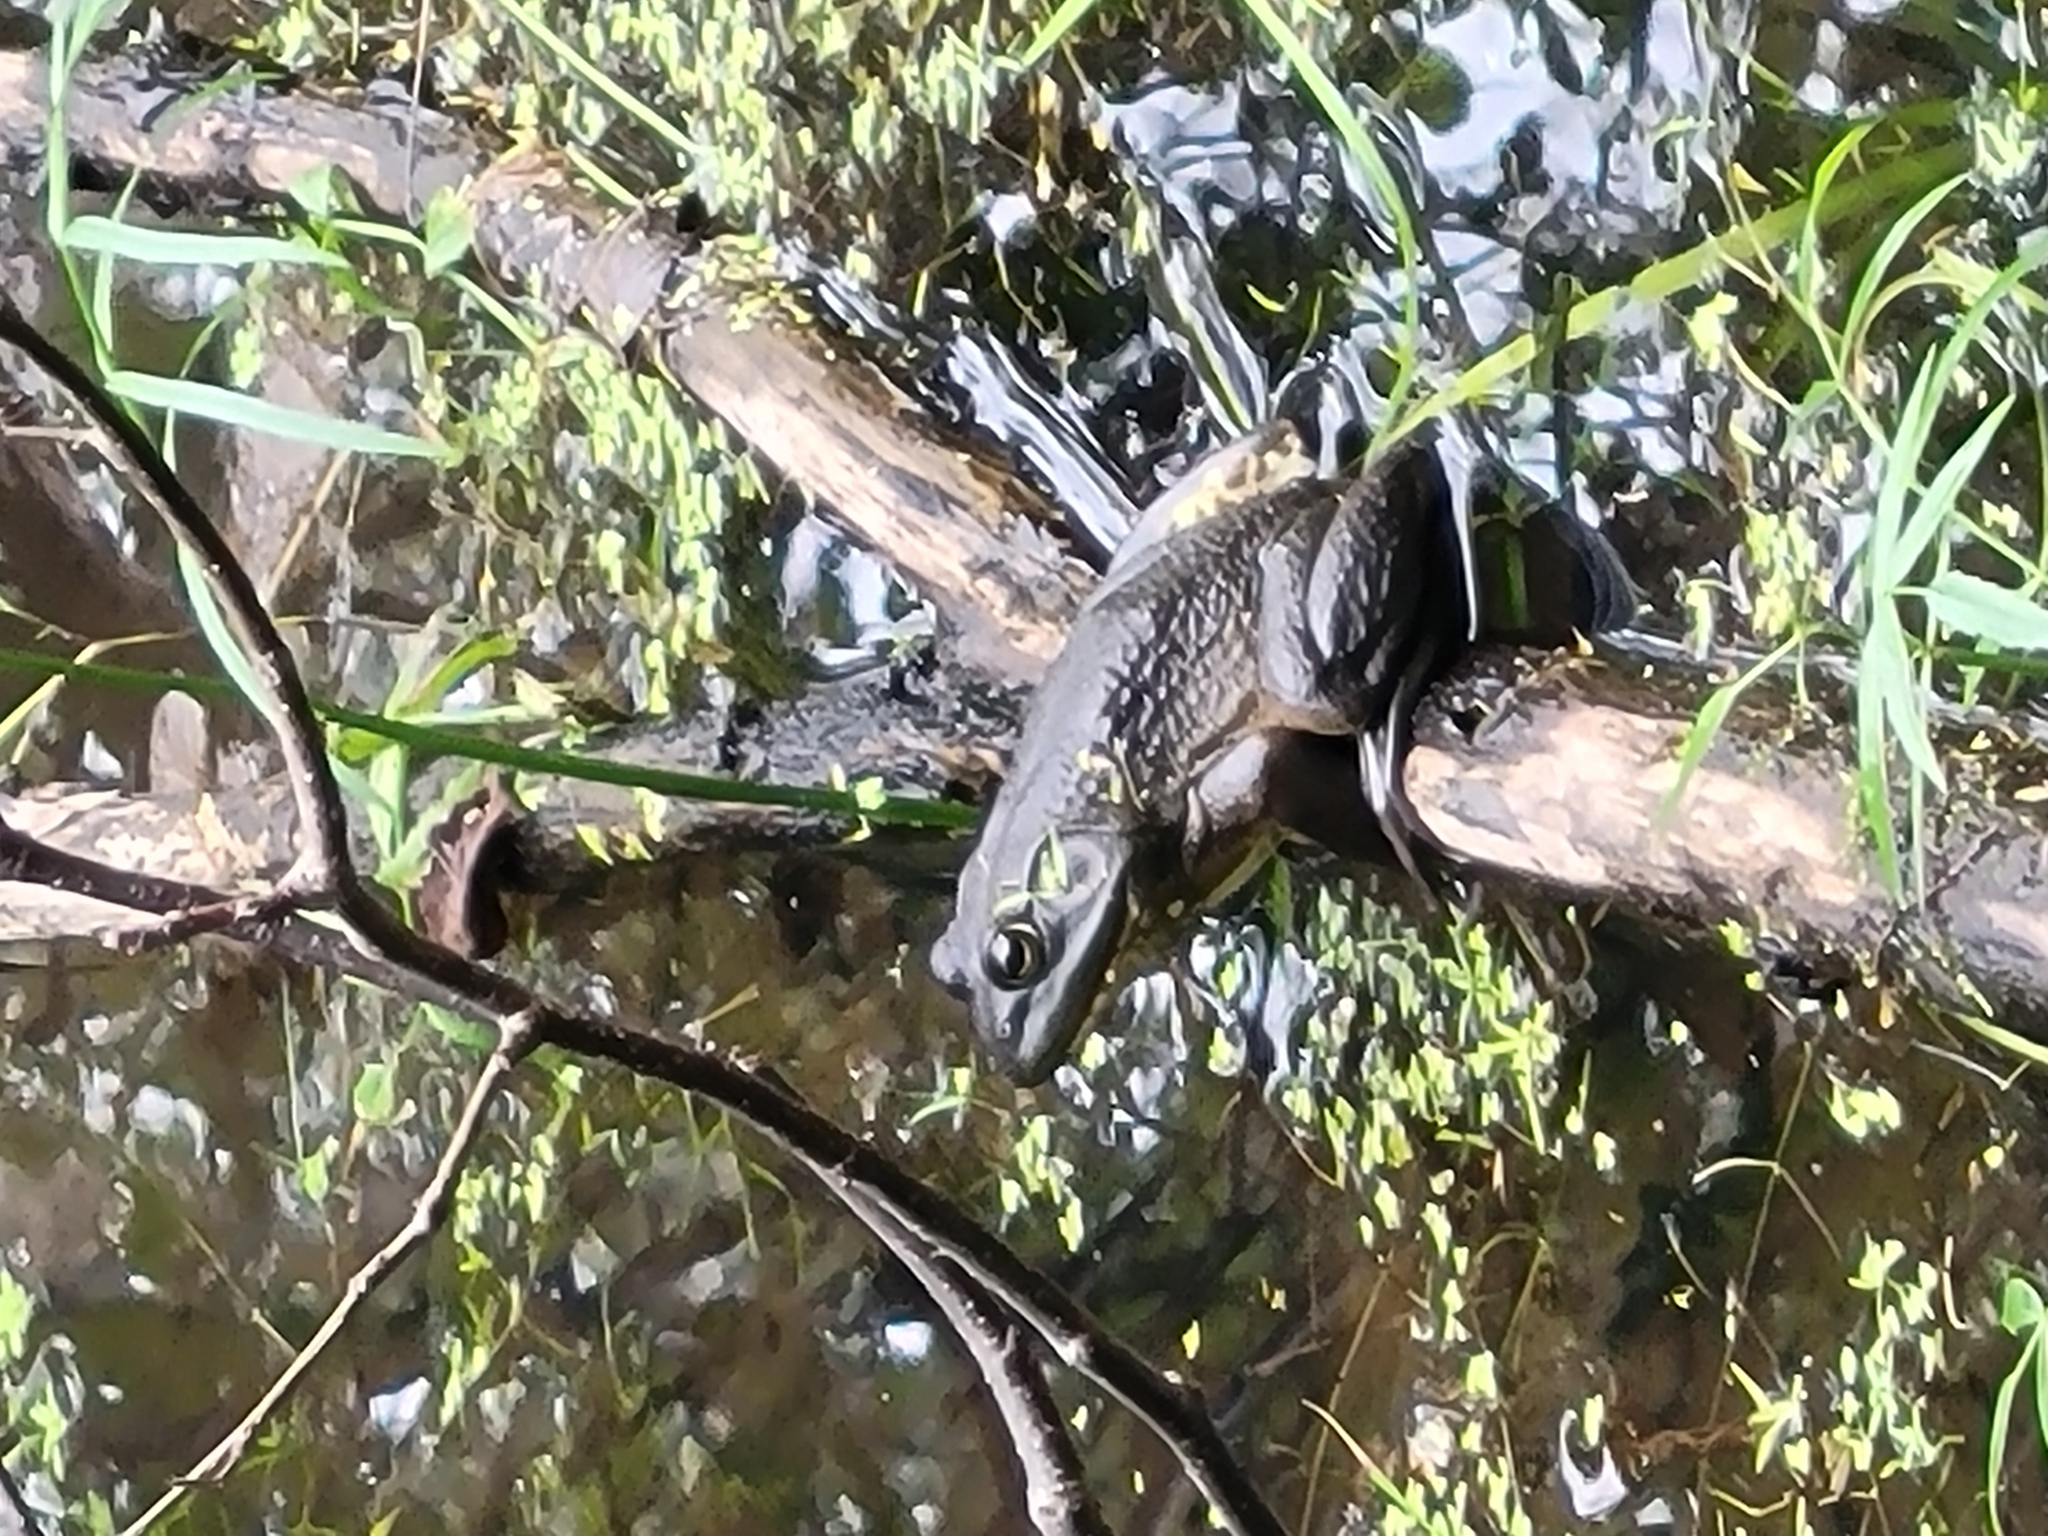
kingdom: Animalia
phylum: Chordata
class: Amphibia
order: Anura
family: Ranidae
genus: Lithobates
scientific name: Lithobates catesbeianus
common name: American bullfrog
